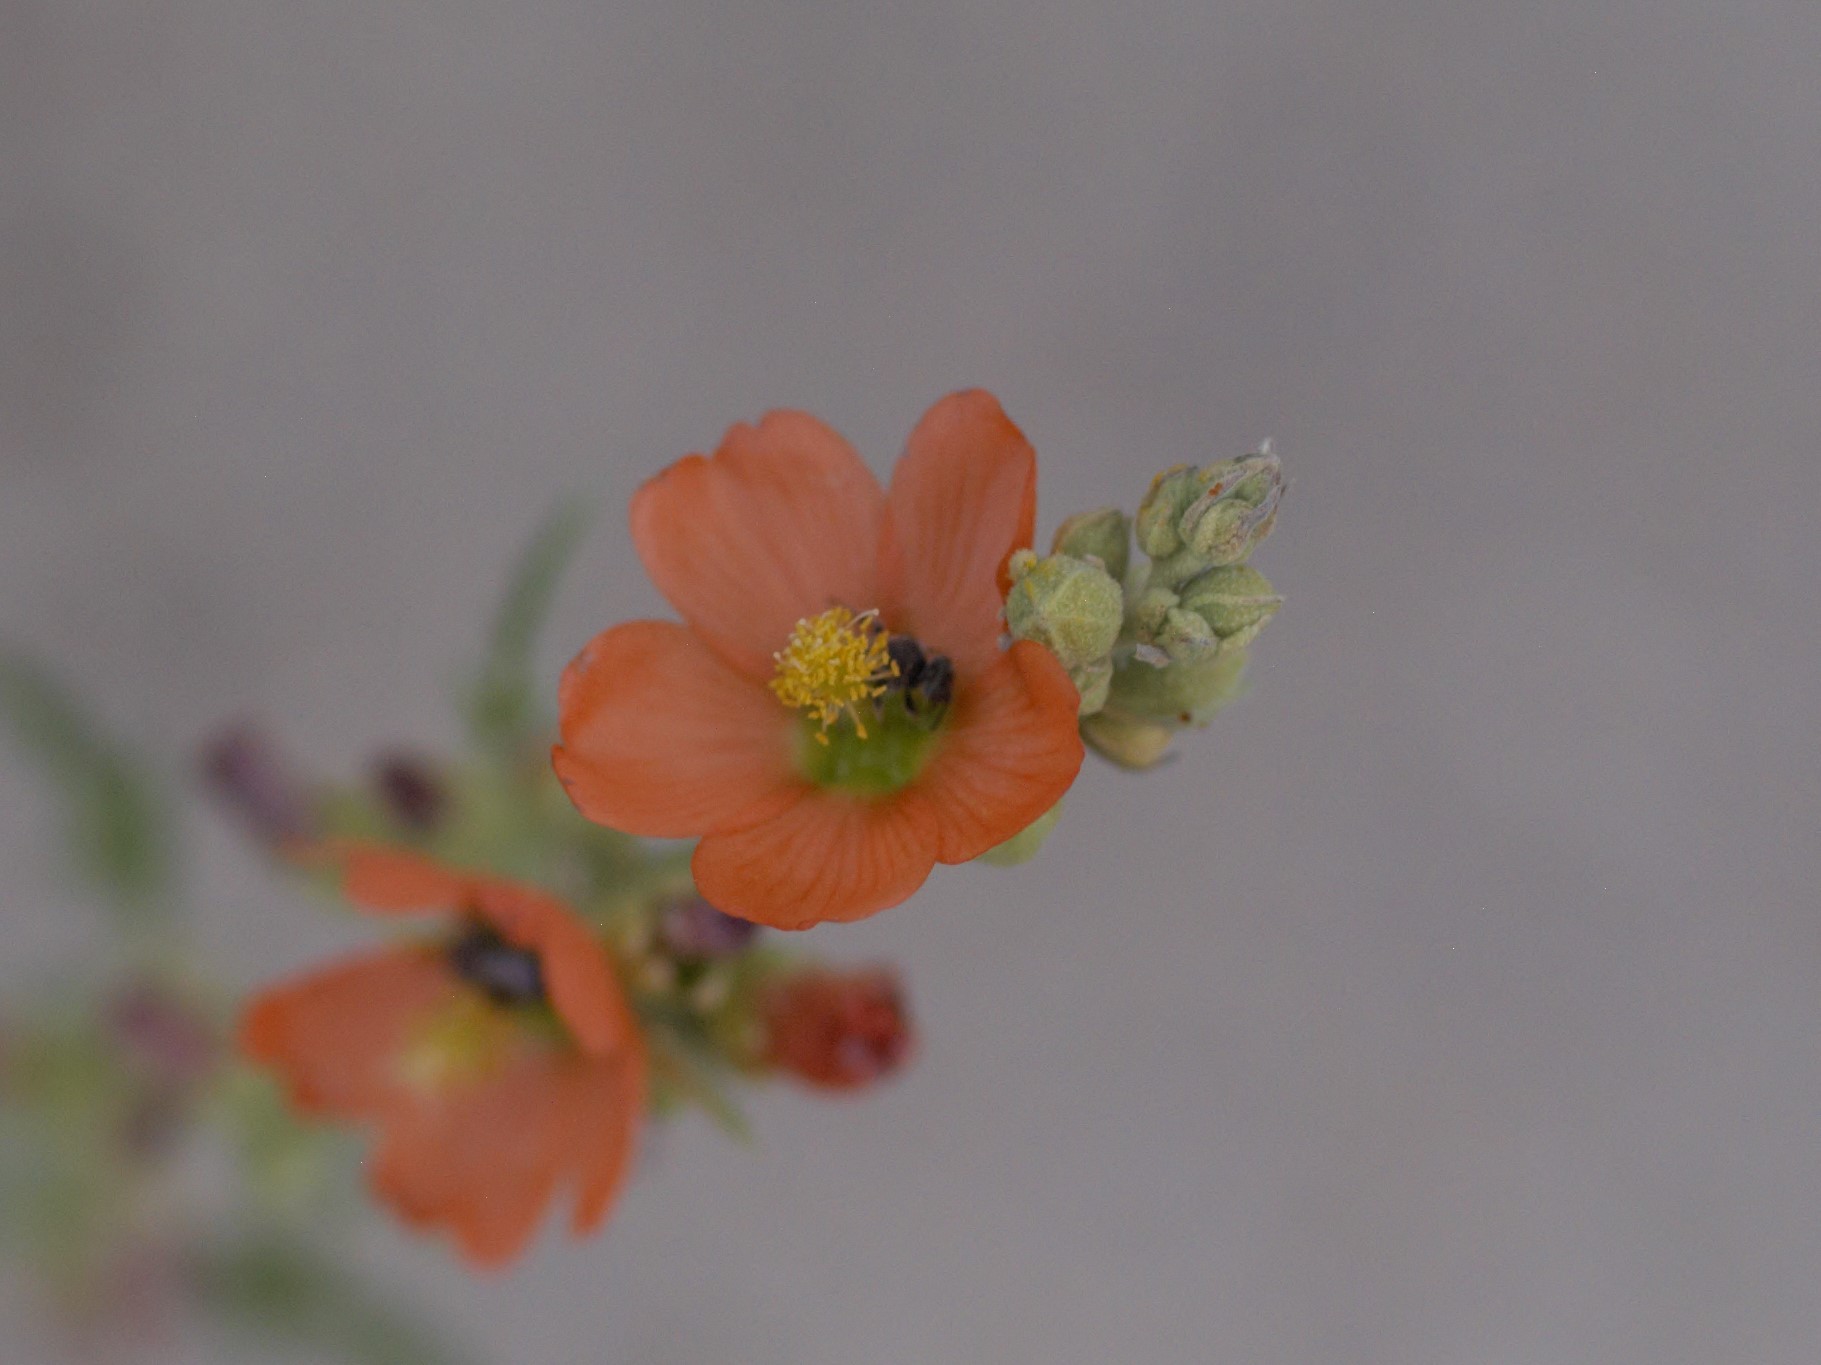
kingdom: Animalia
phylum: Arthropoda
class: Insecta
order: Hymenoptera
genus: Macroteropsis
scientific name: Macroteropsis
